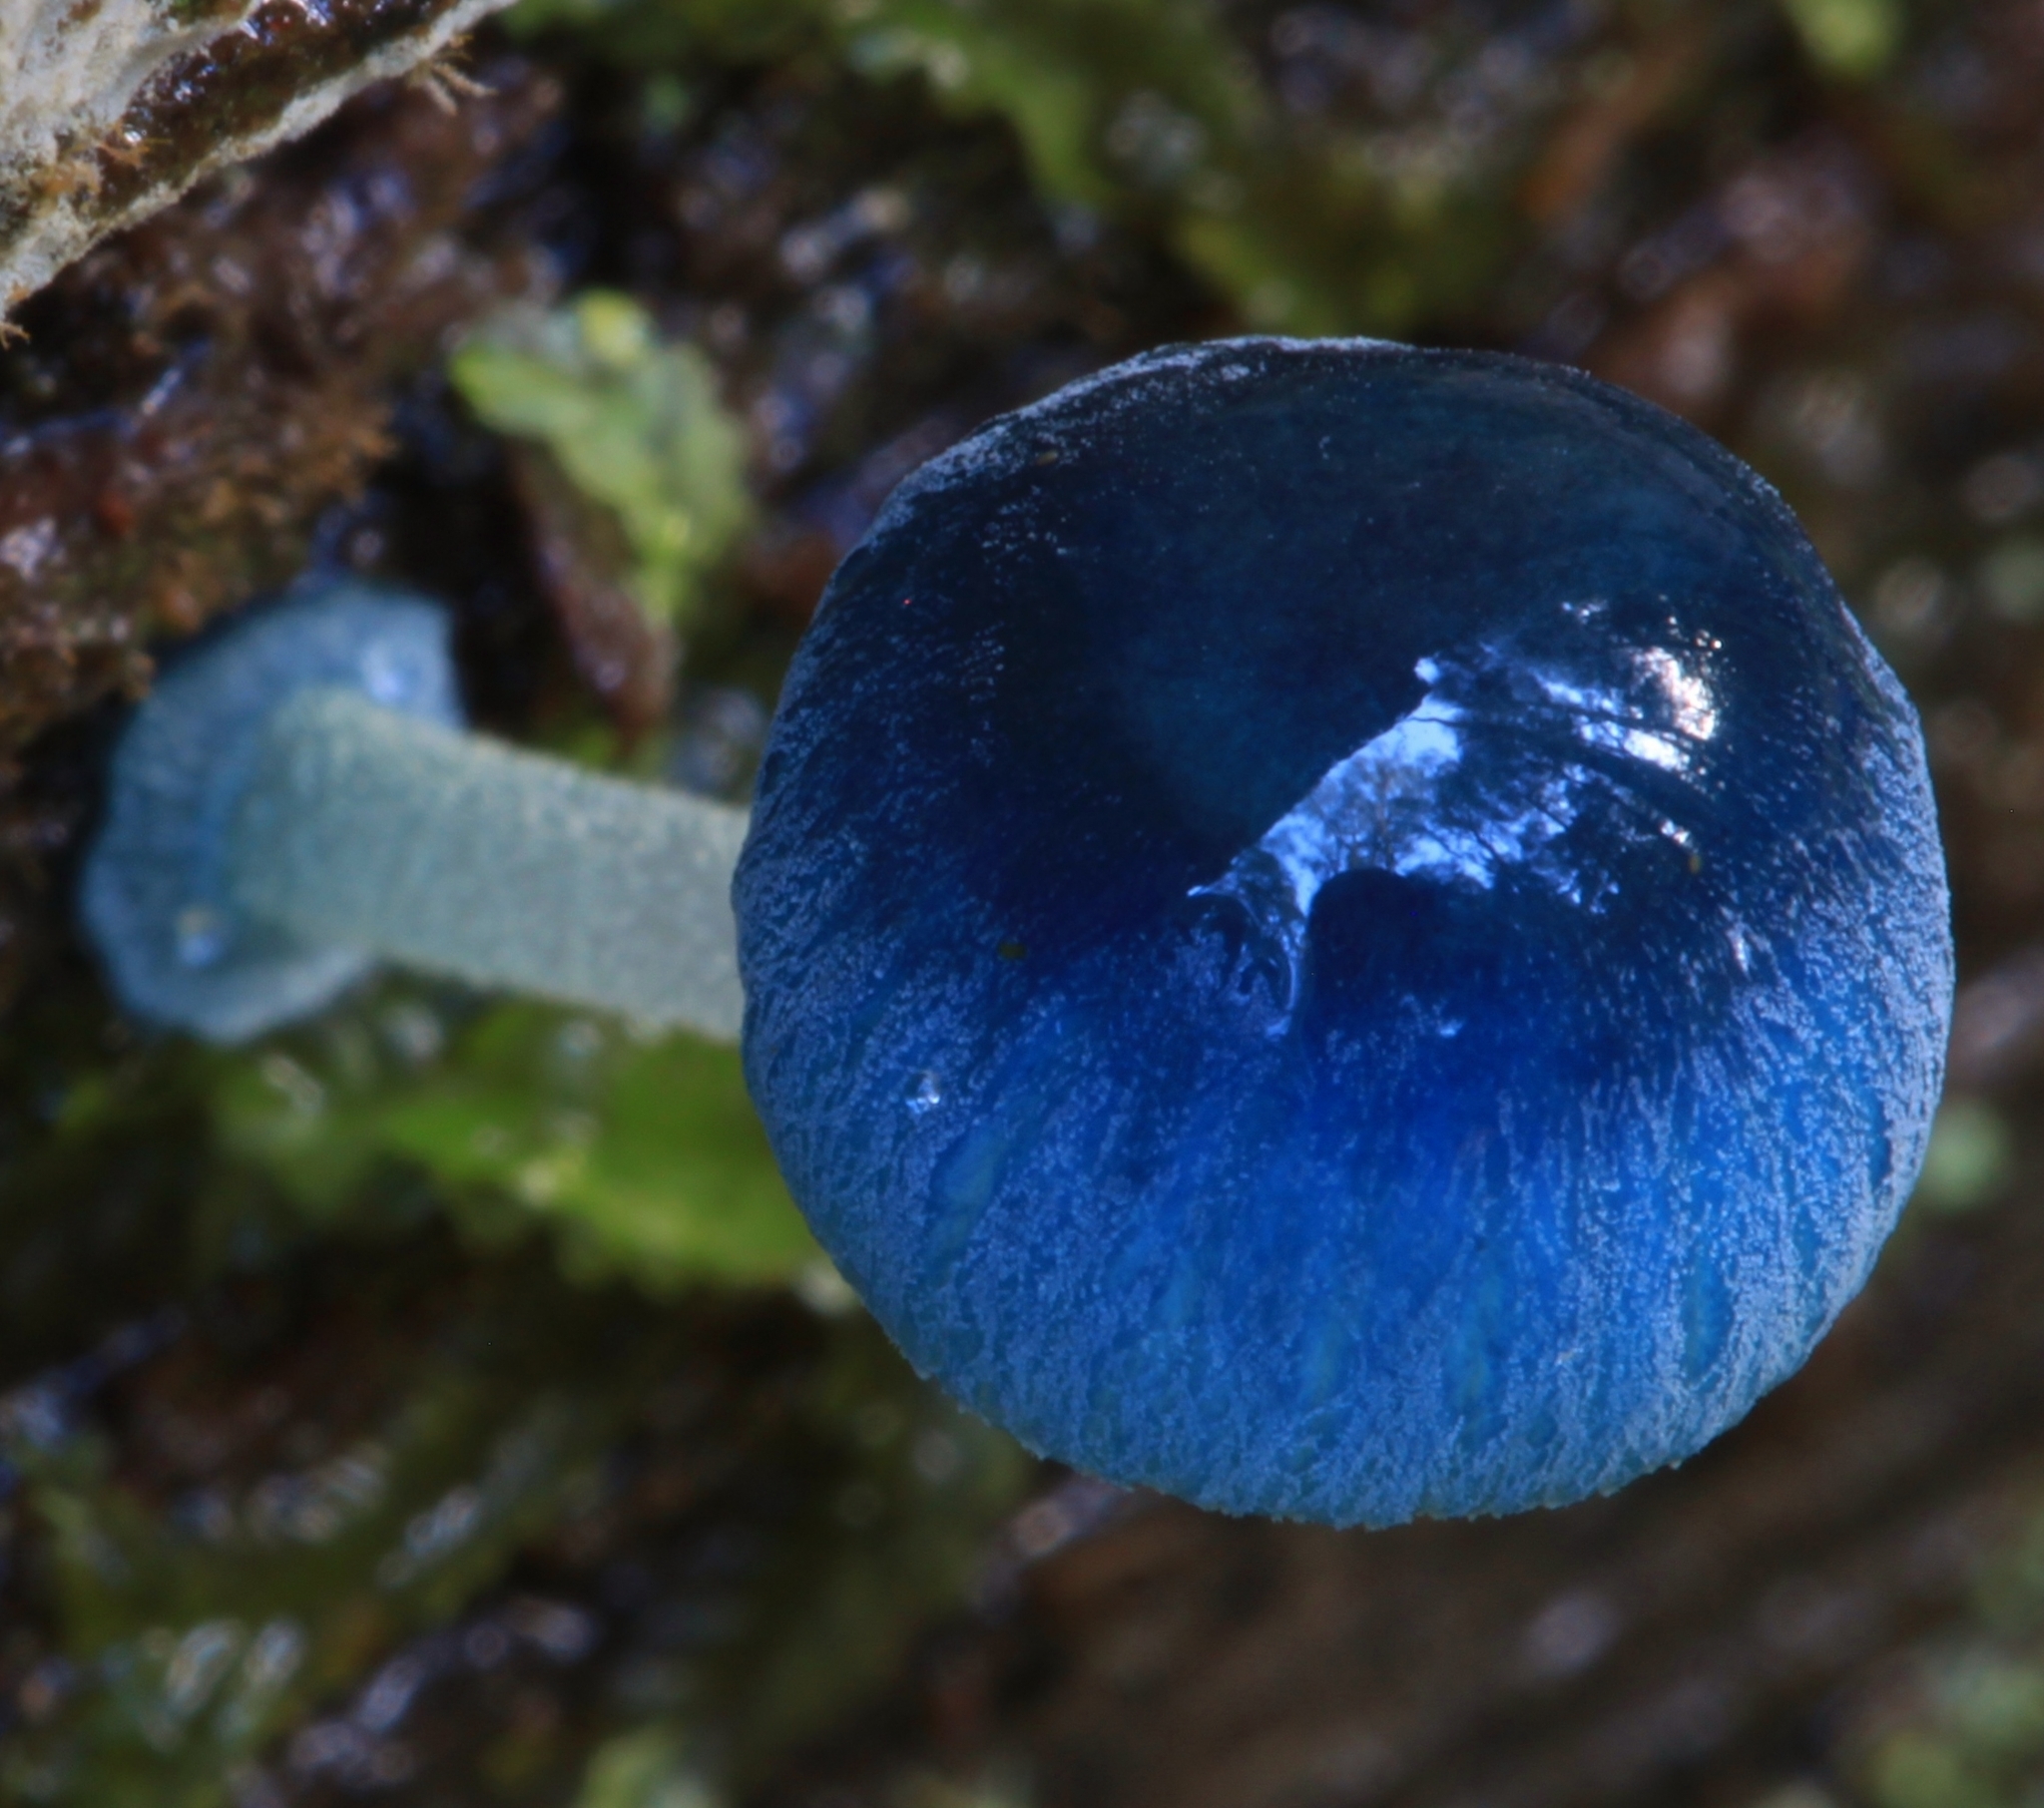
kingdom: Fungi
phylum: Basidiomycota
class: Agaricomycetes
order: Agaricales
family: Mycenaceae
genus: Mycena
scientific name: Mycena interrupta
